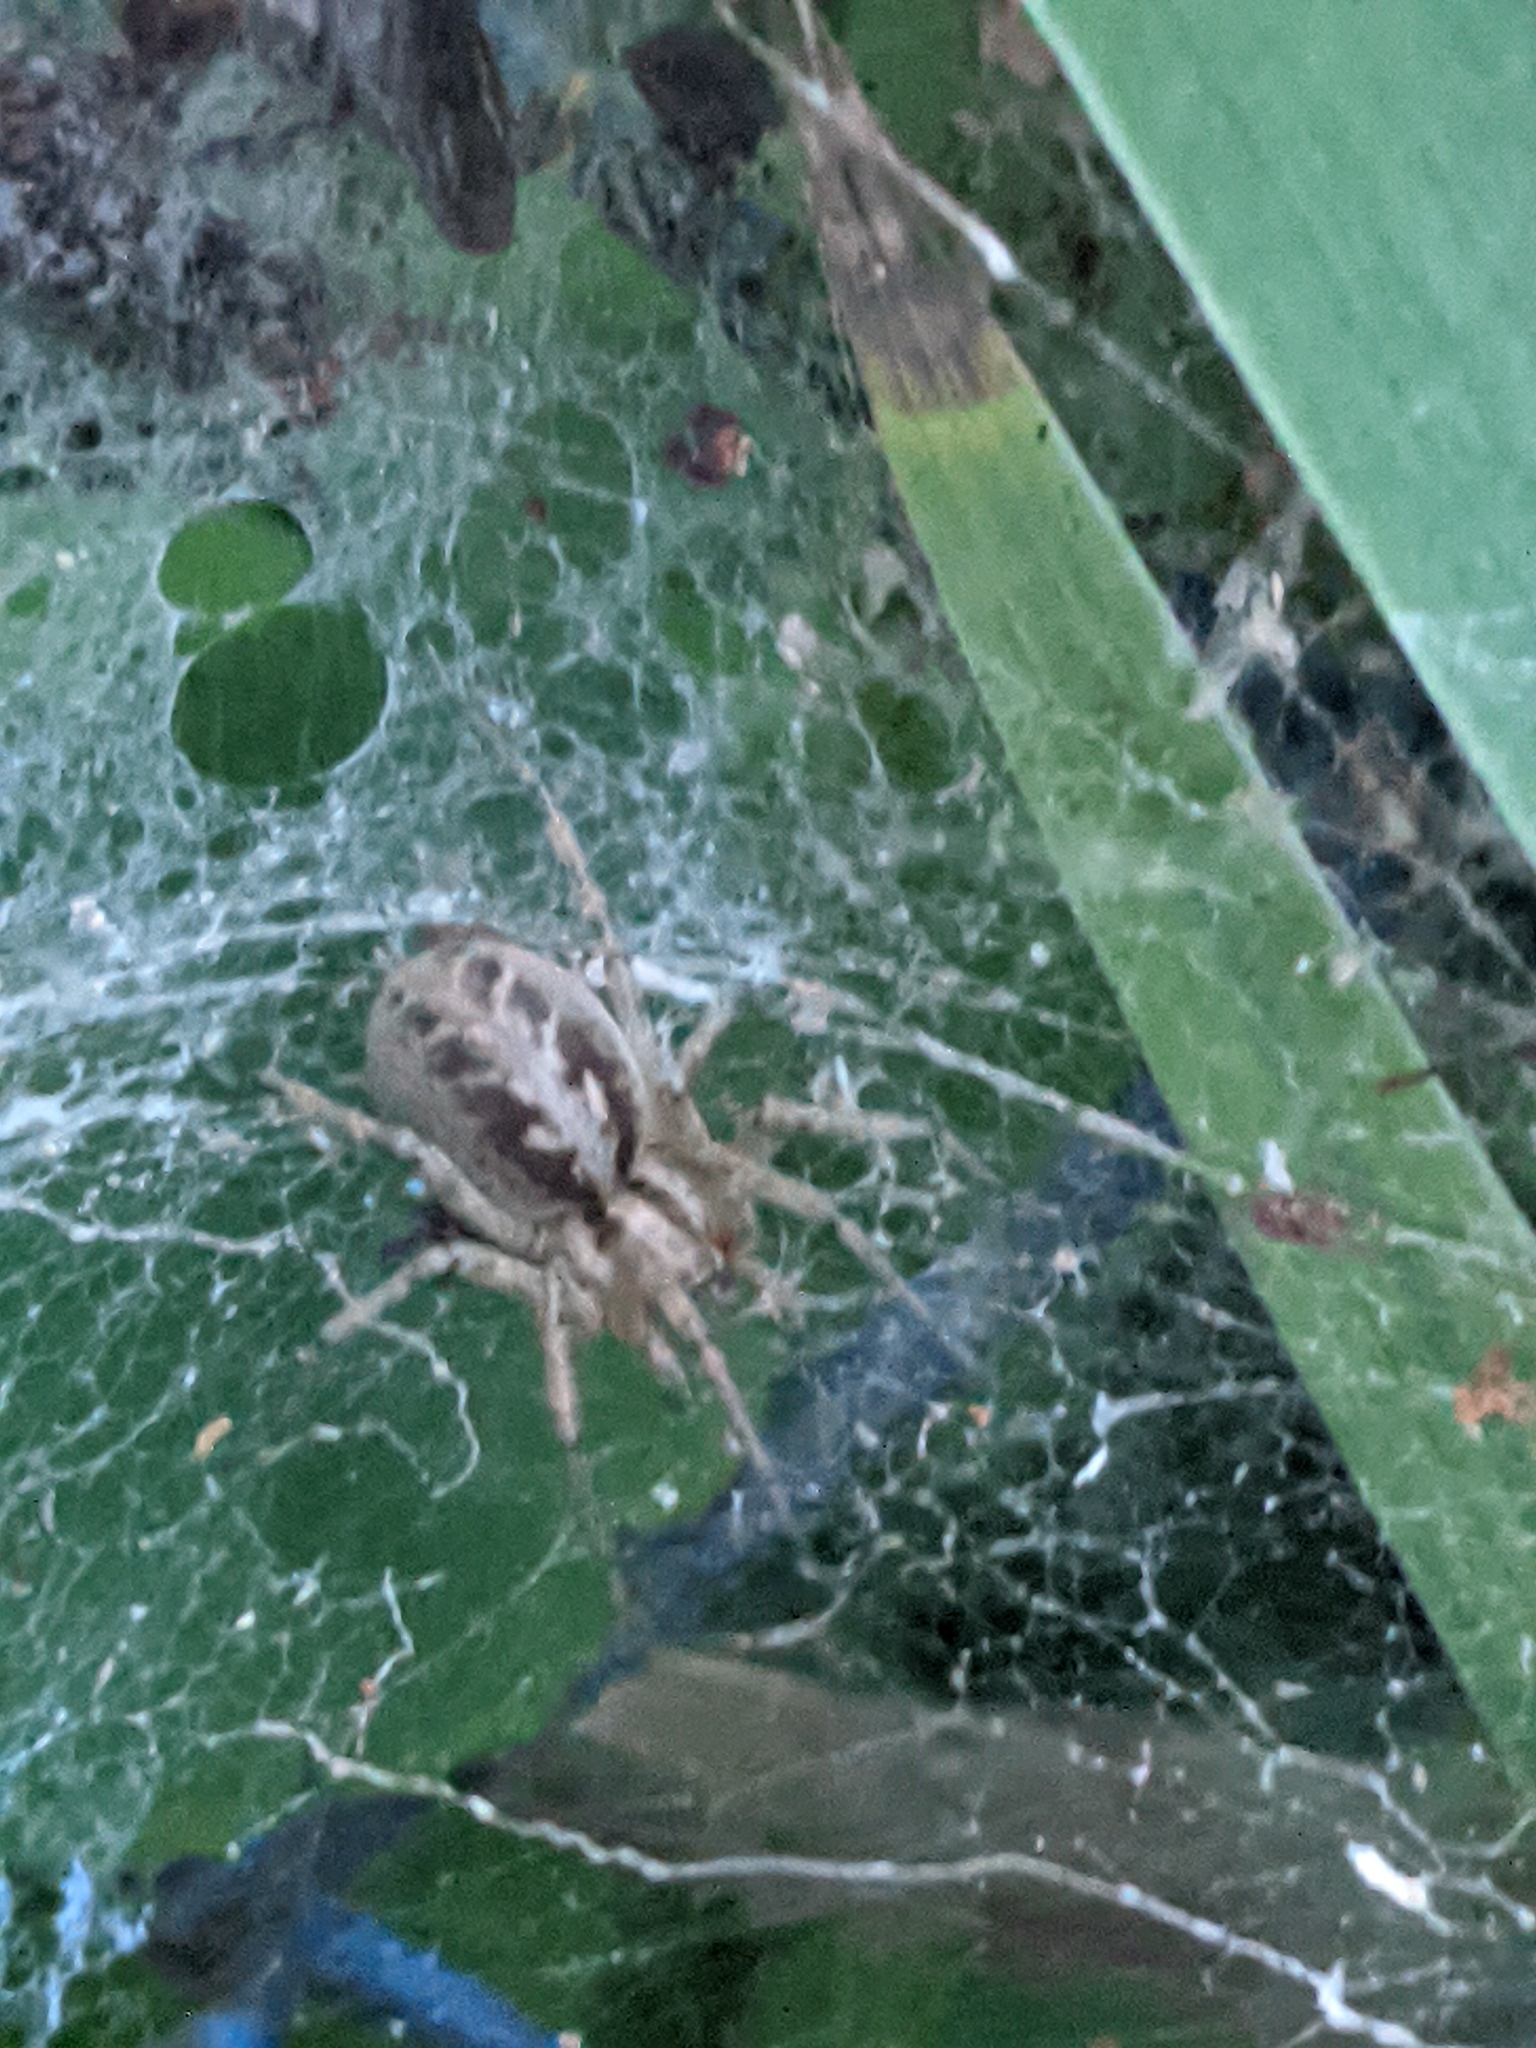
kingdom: Animalia
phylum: Arthropoda
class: Arachnida
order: Araneae
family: Agelenidae
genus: Agelena
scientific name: Agelena labyrinthica
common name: Labyrinth spider
